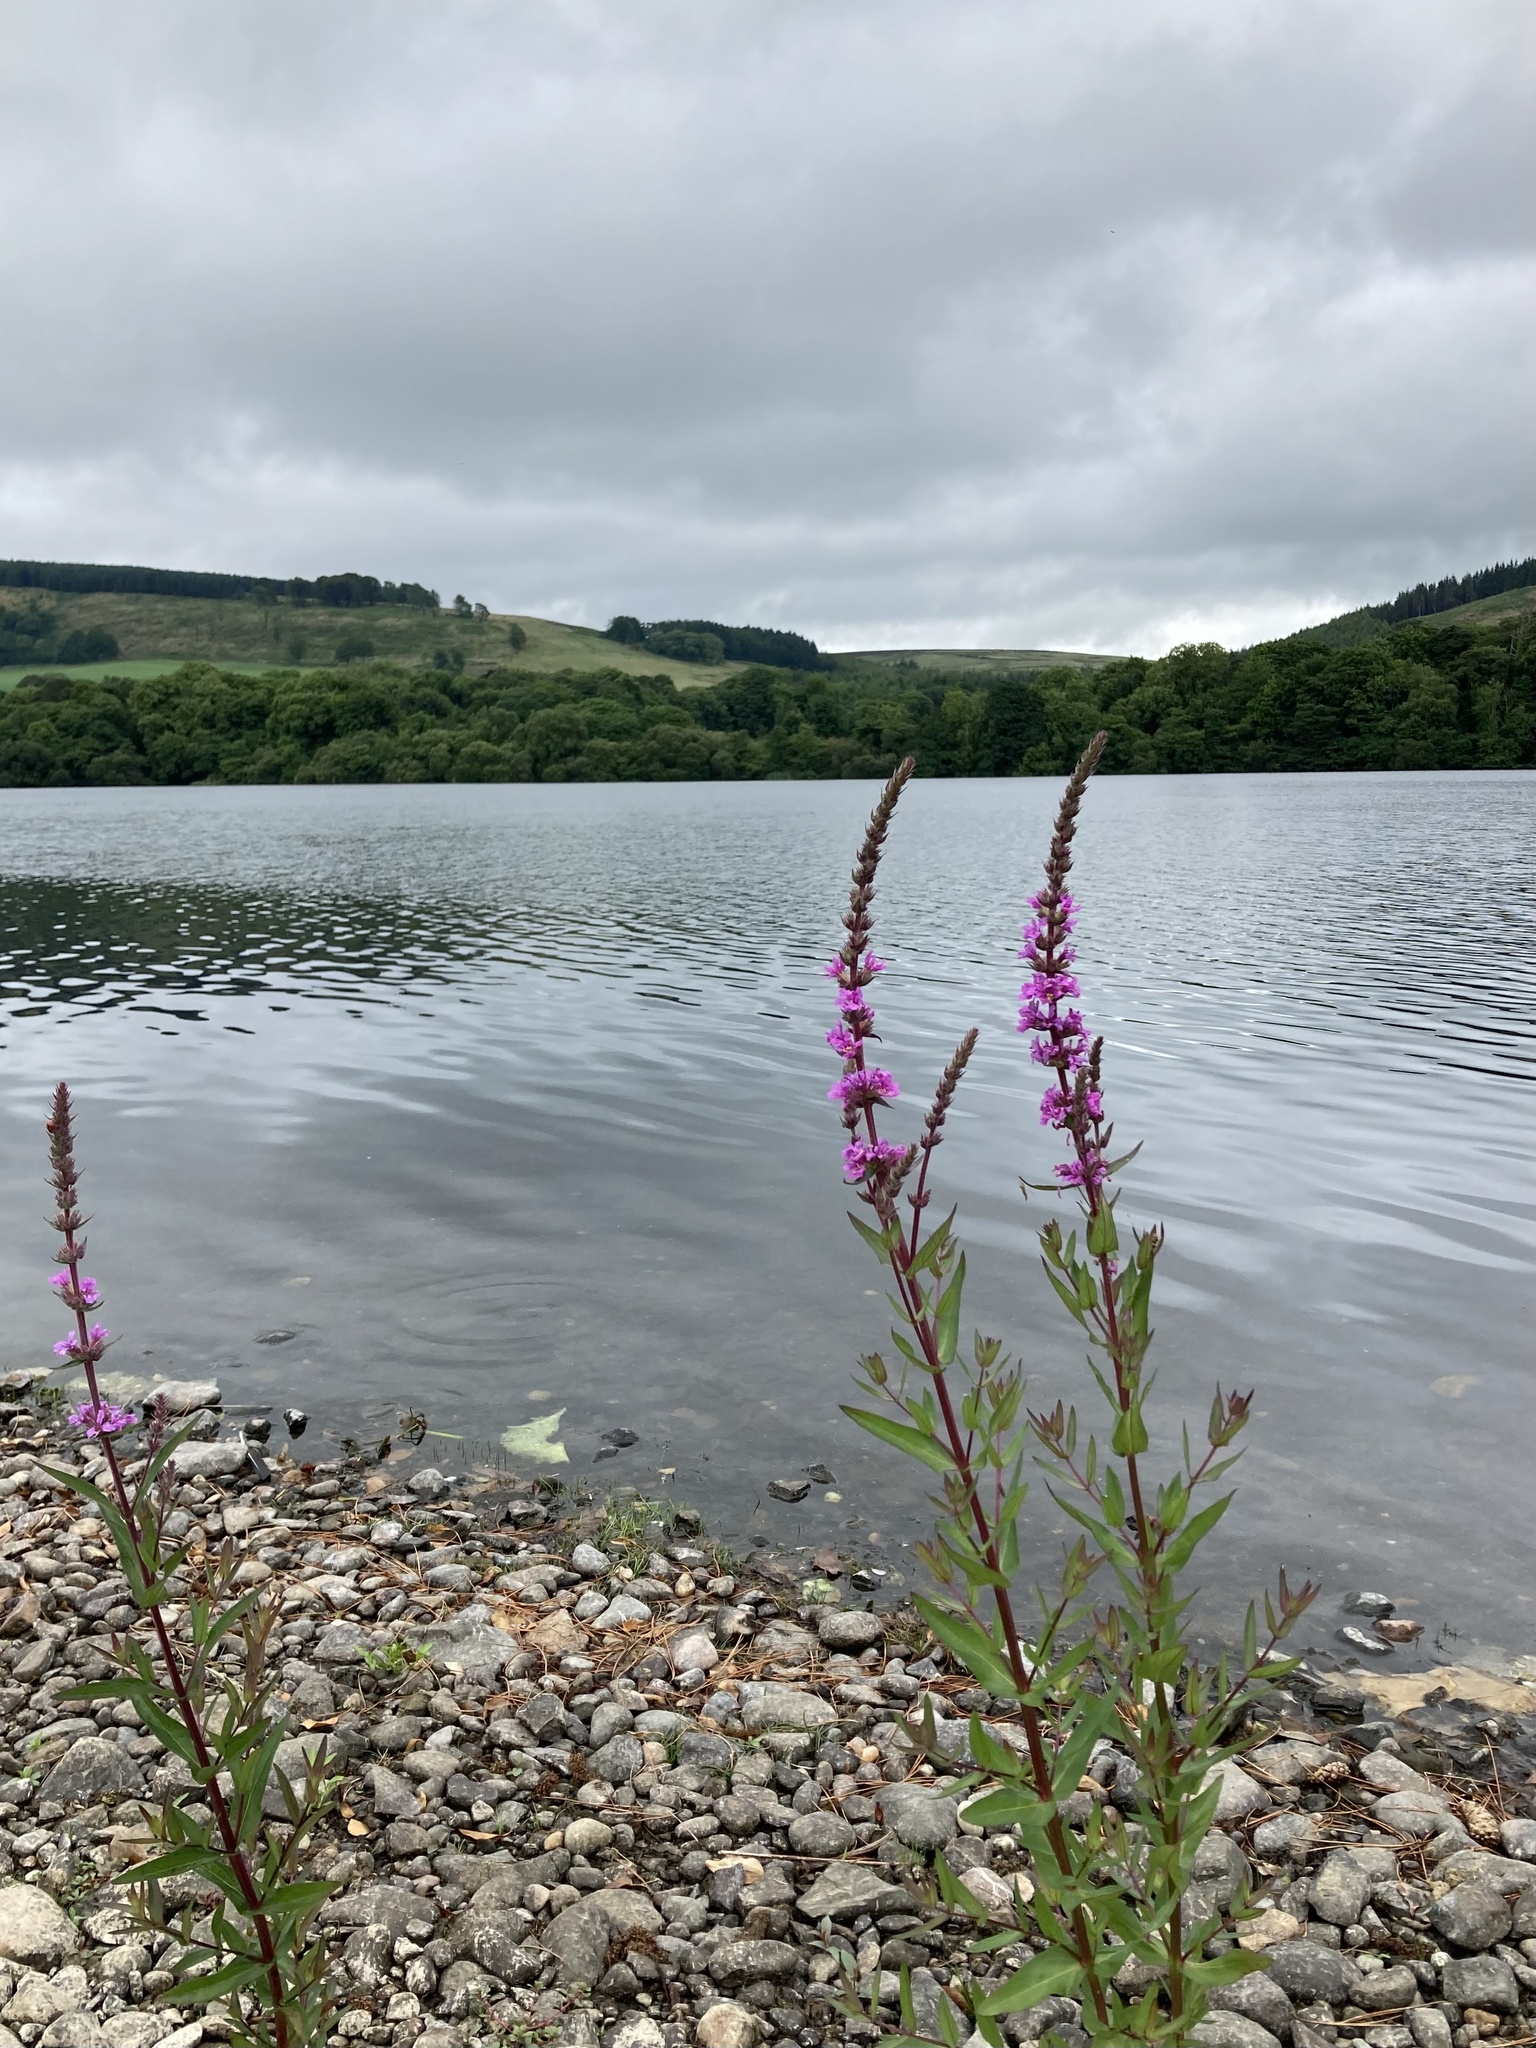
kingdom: Plantae
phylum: Tracheophyta
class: Magnoliopsida
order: Myrtales
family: Lythraceae
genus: Lythrum
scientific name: Lythrum salicaria
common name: Purple loosestrife
